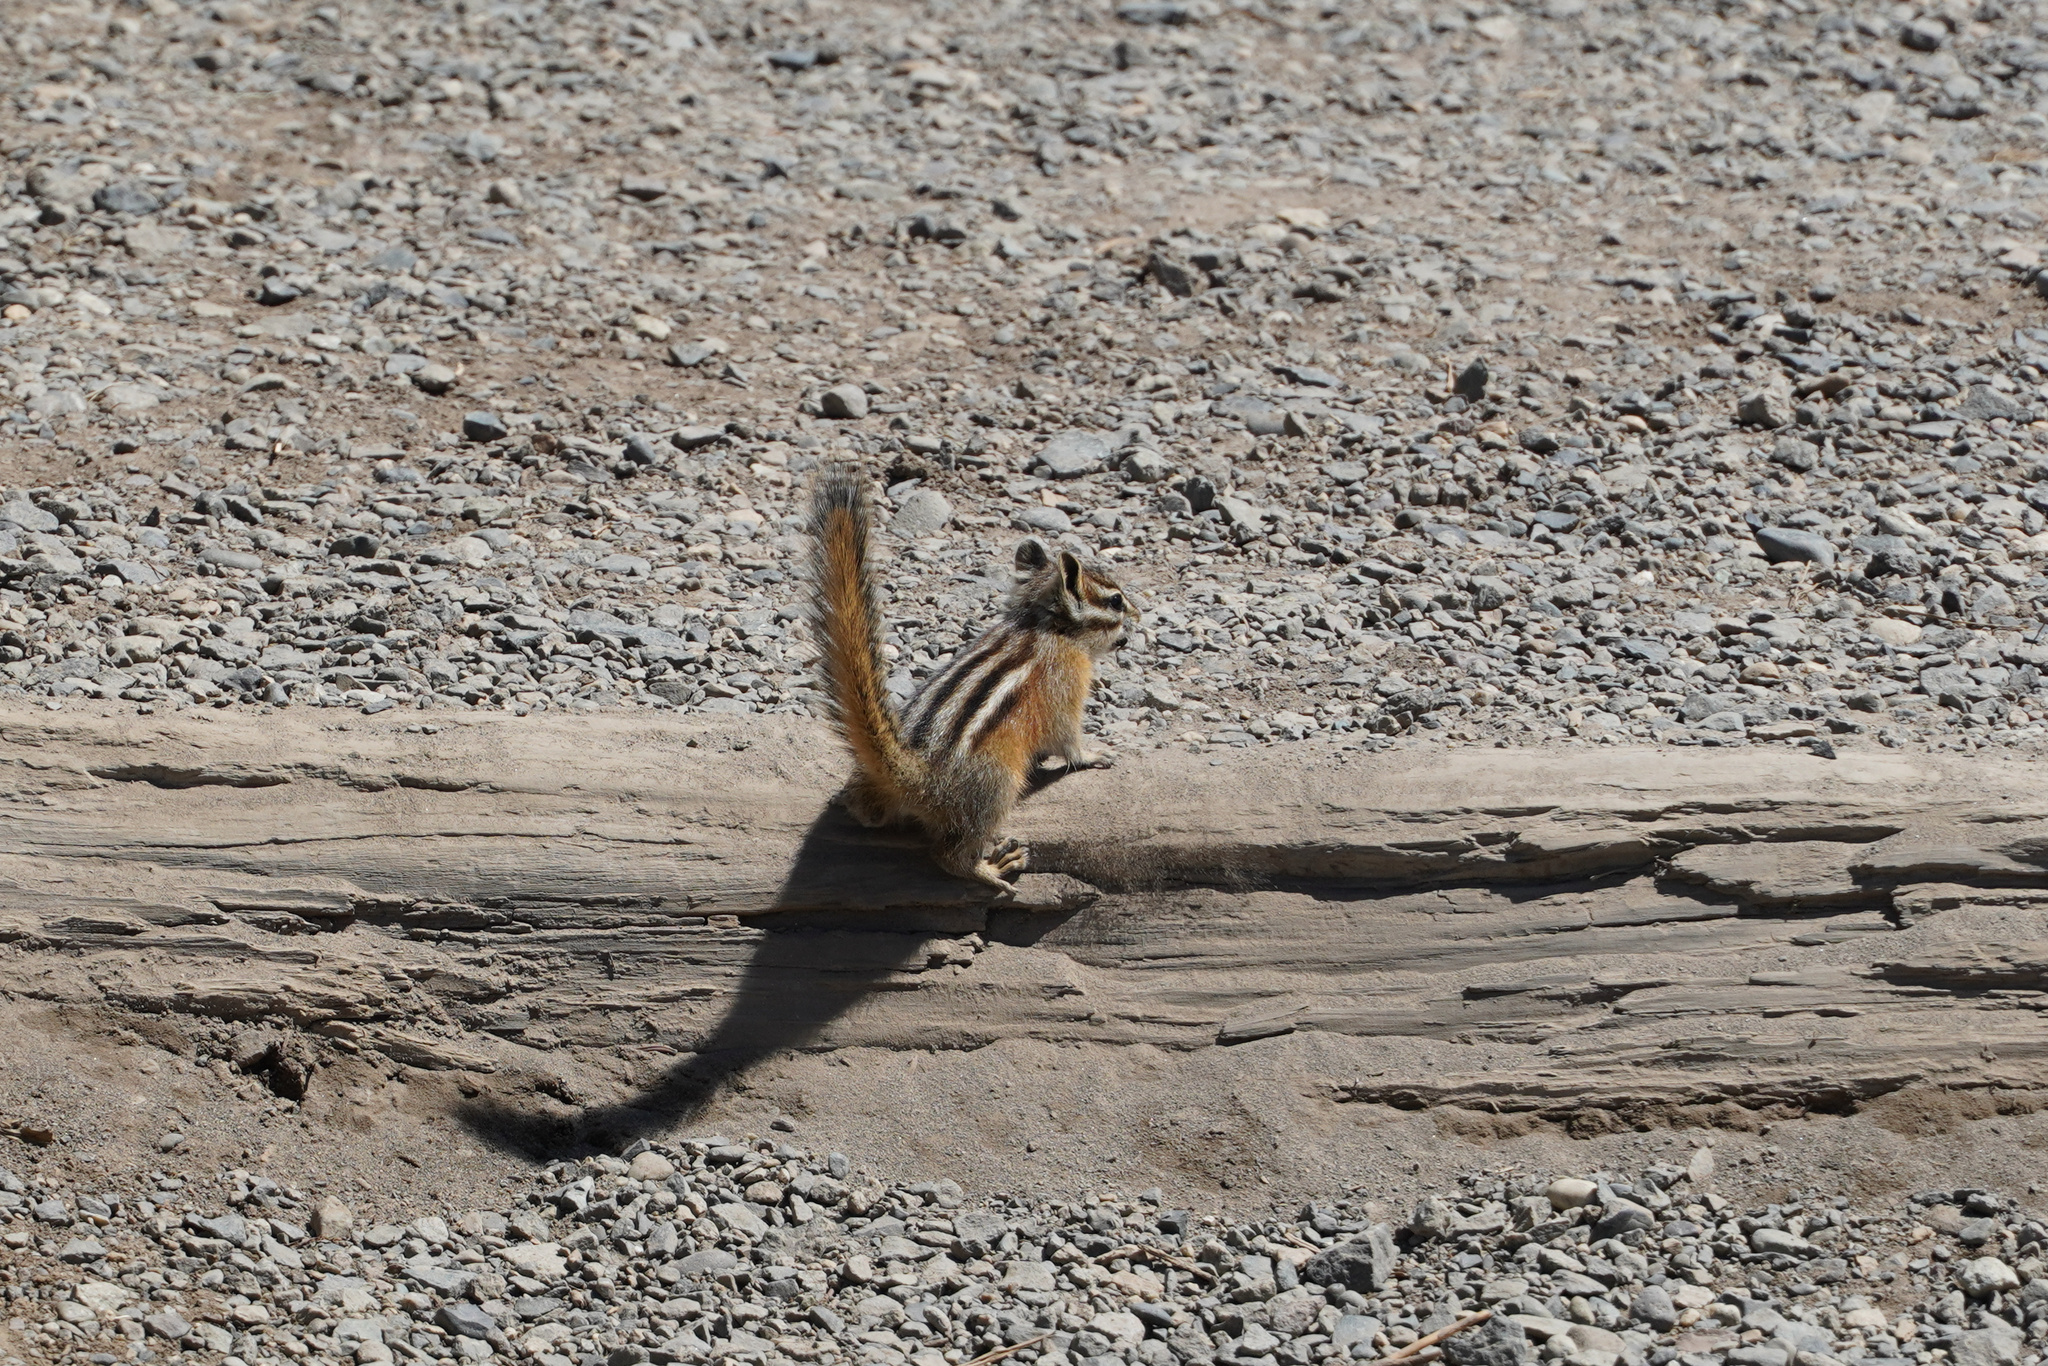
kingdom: Animalia
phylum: Chordata
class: Mammalia
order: Rodentia
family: Sciuridae
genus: Tamias
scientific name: Tamias amoenus
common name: Yellow-pine chipmunk
